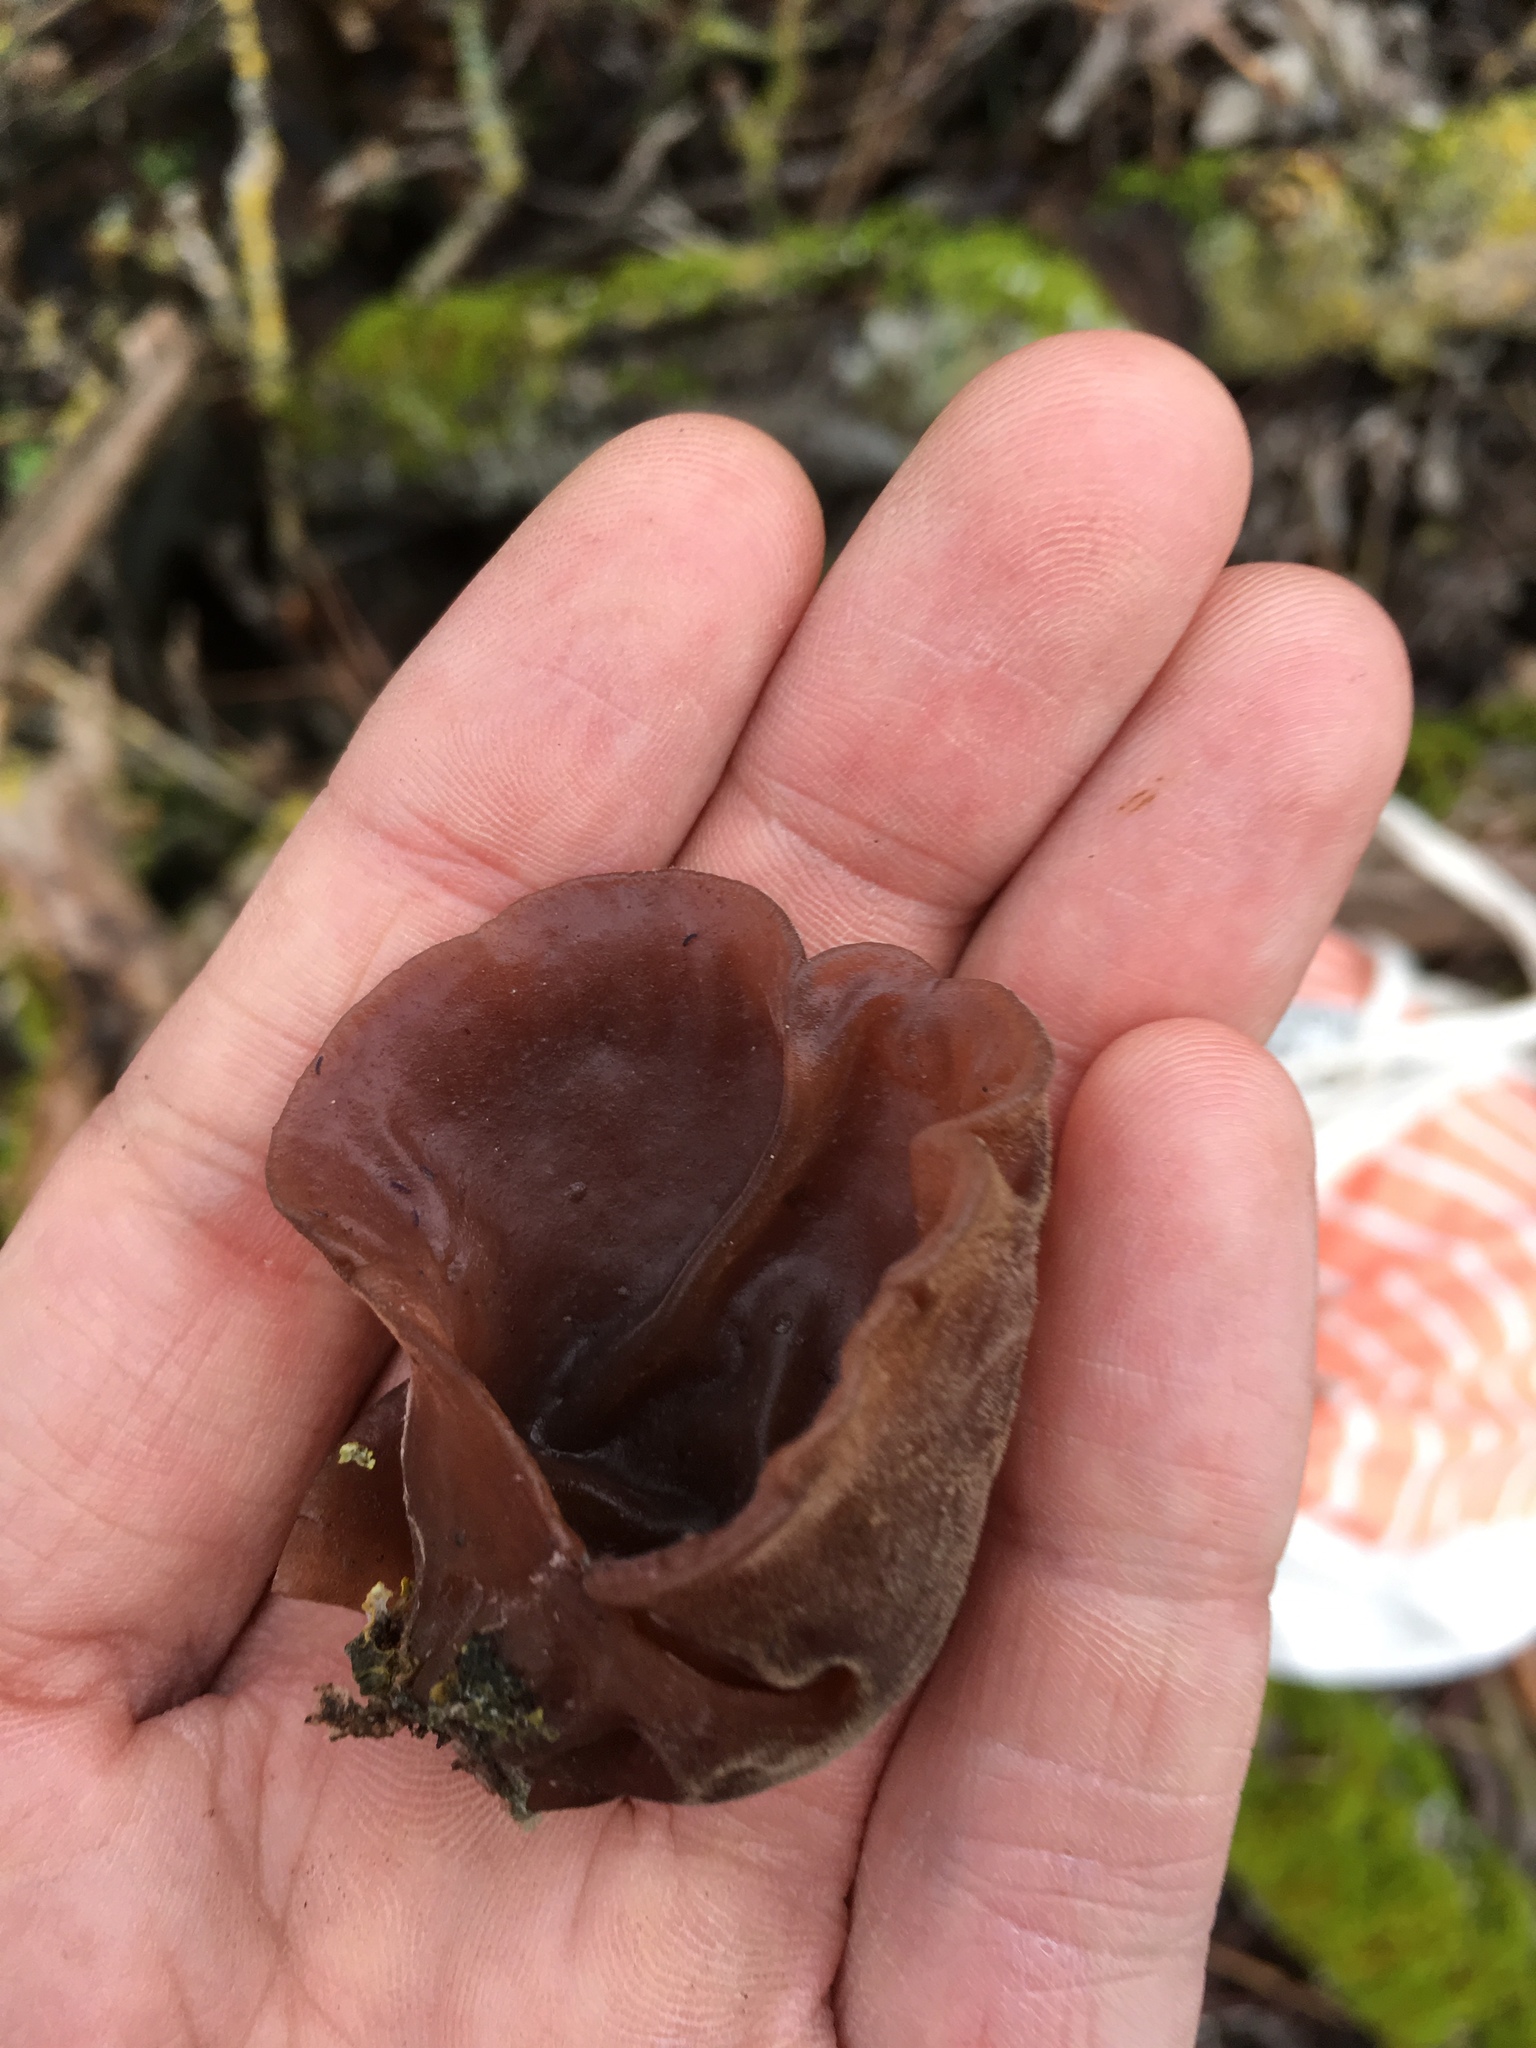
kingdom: Fungi
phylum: Basidiomycota
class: Agaricomycetes
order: Auriculariales
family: Auriculariaceae
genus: Auricularia
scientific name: Auricularia auricula-judae
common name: Jelly ear
